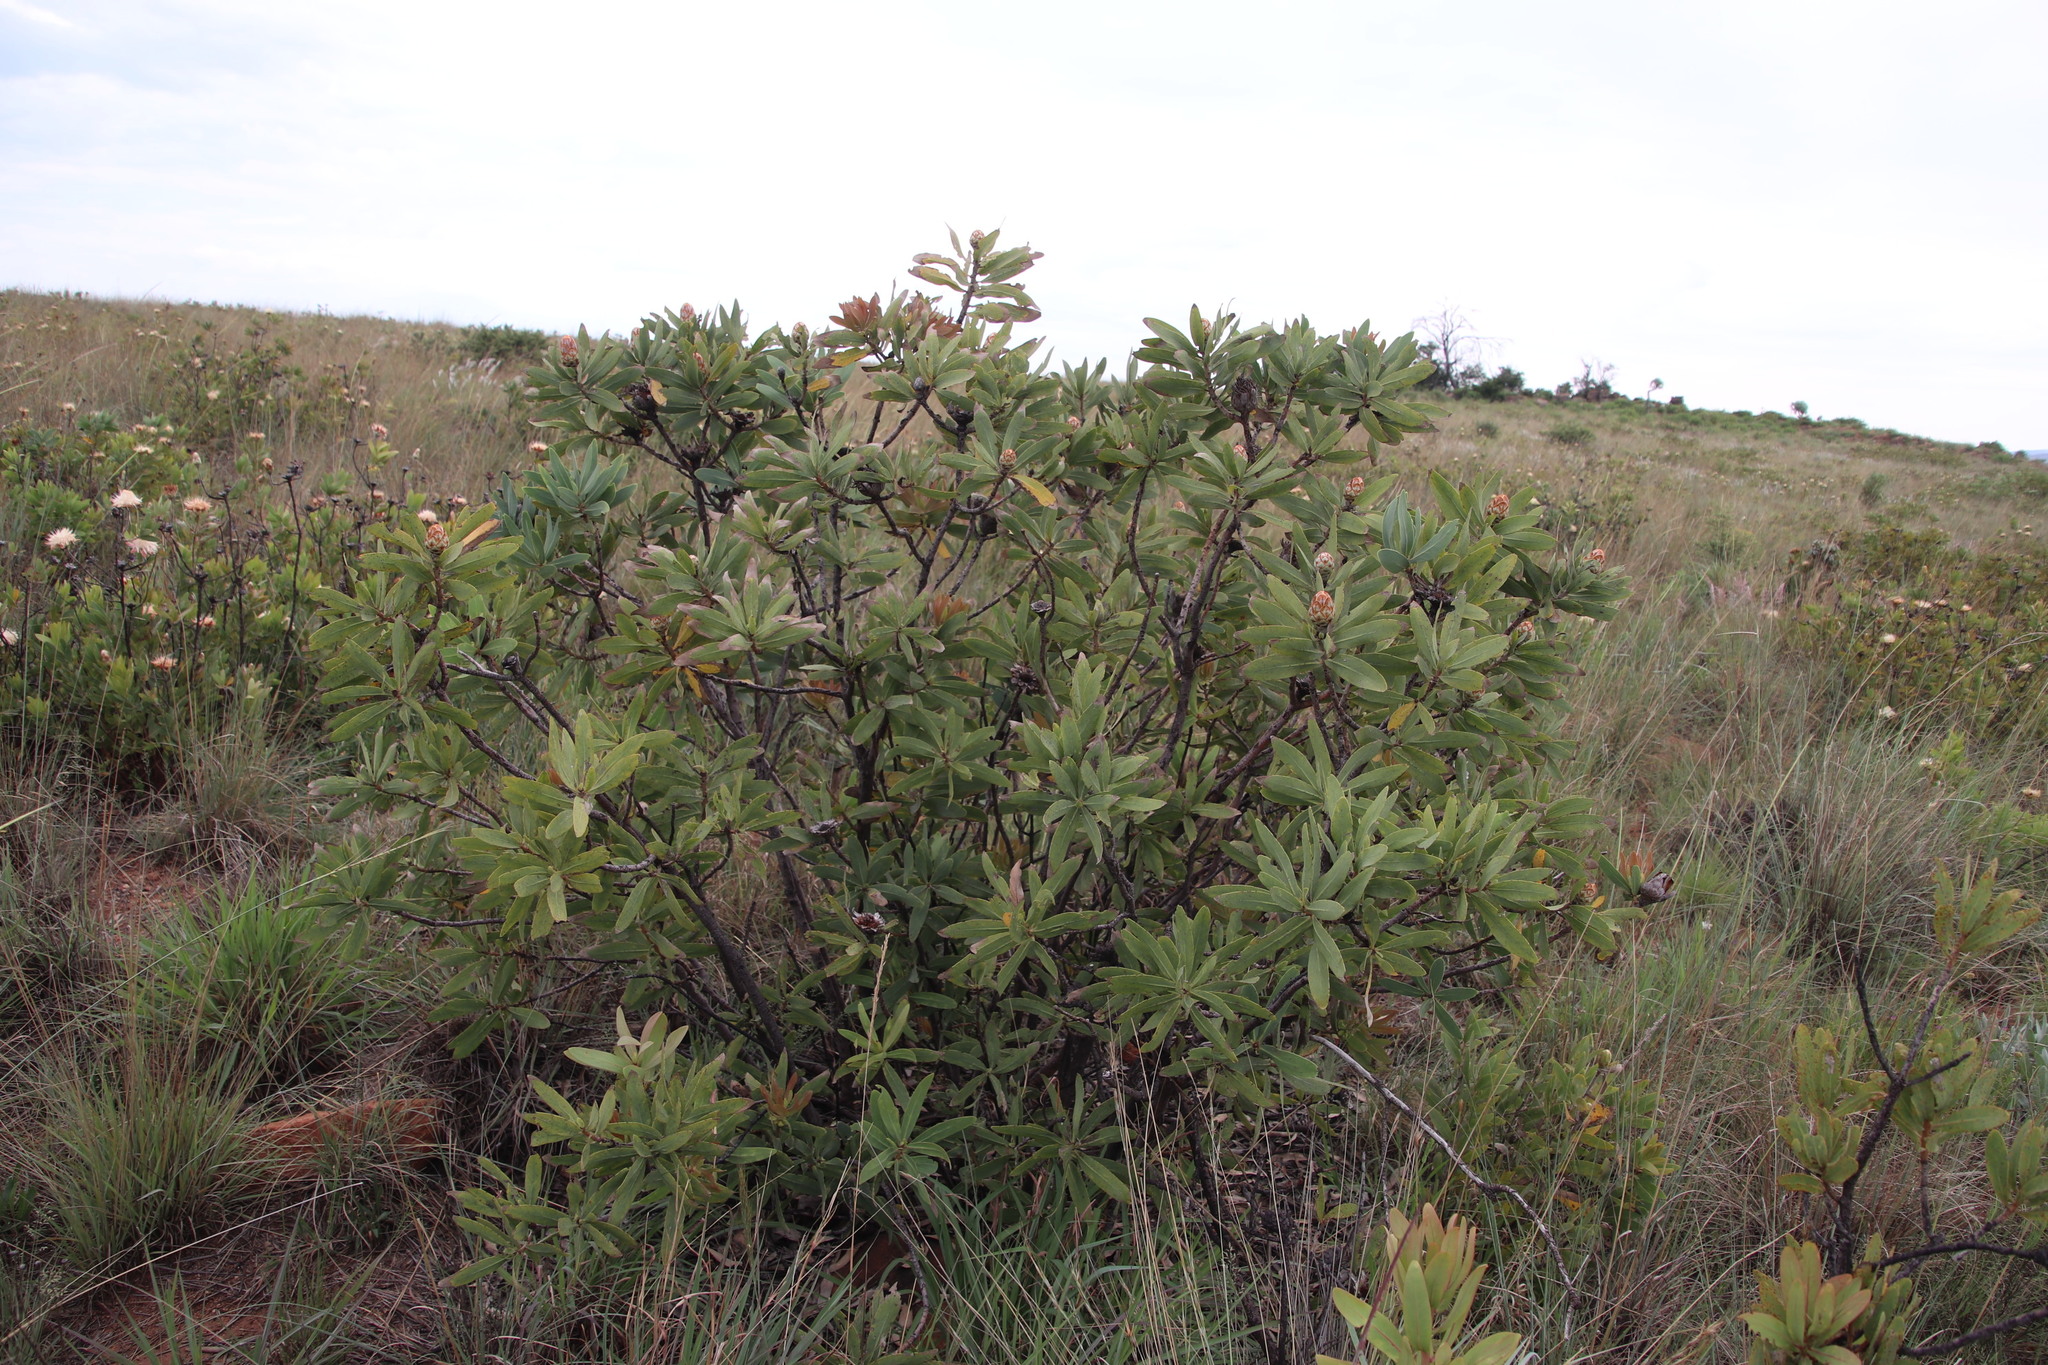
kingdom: Plantae
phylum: Tracheophyta
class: Magnoliopsida
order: Proteales
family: Proteaceae
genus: Protea
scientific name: Protea
